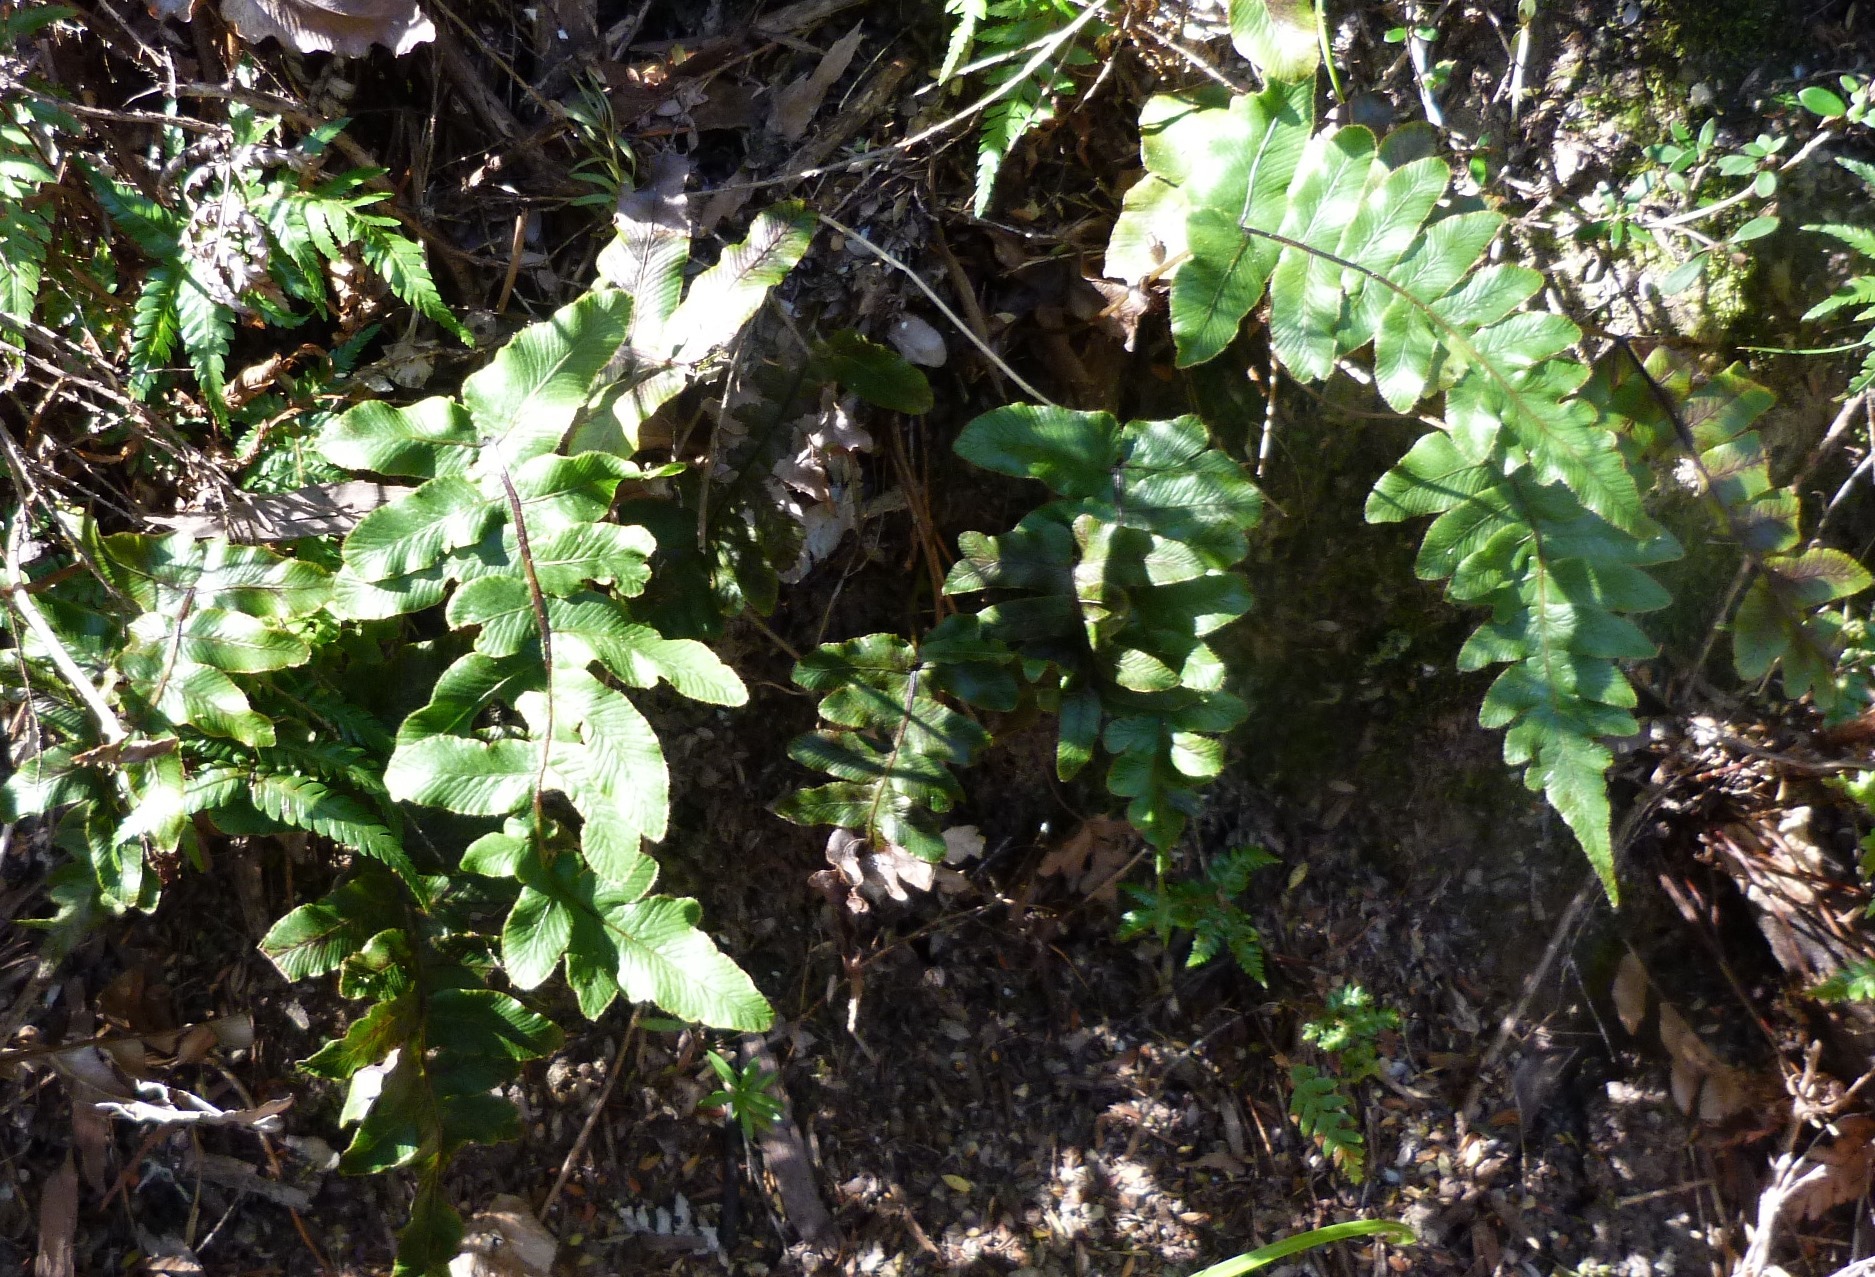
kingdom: Plantae
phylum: Tracheophyta
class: Polypodiopsida
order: Polypodiales
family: Blechnaceae
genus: Cranfillia
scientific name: Cranfillia deltoides
